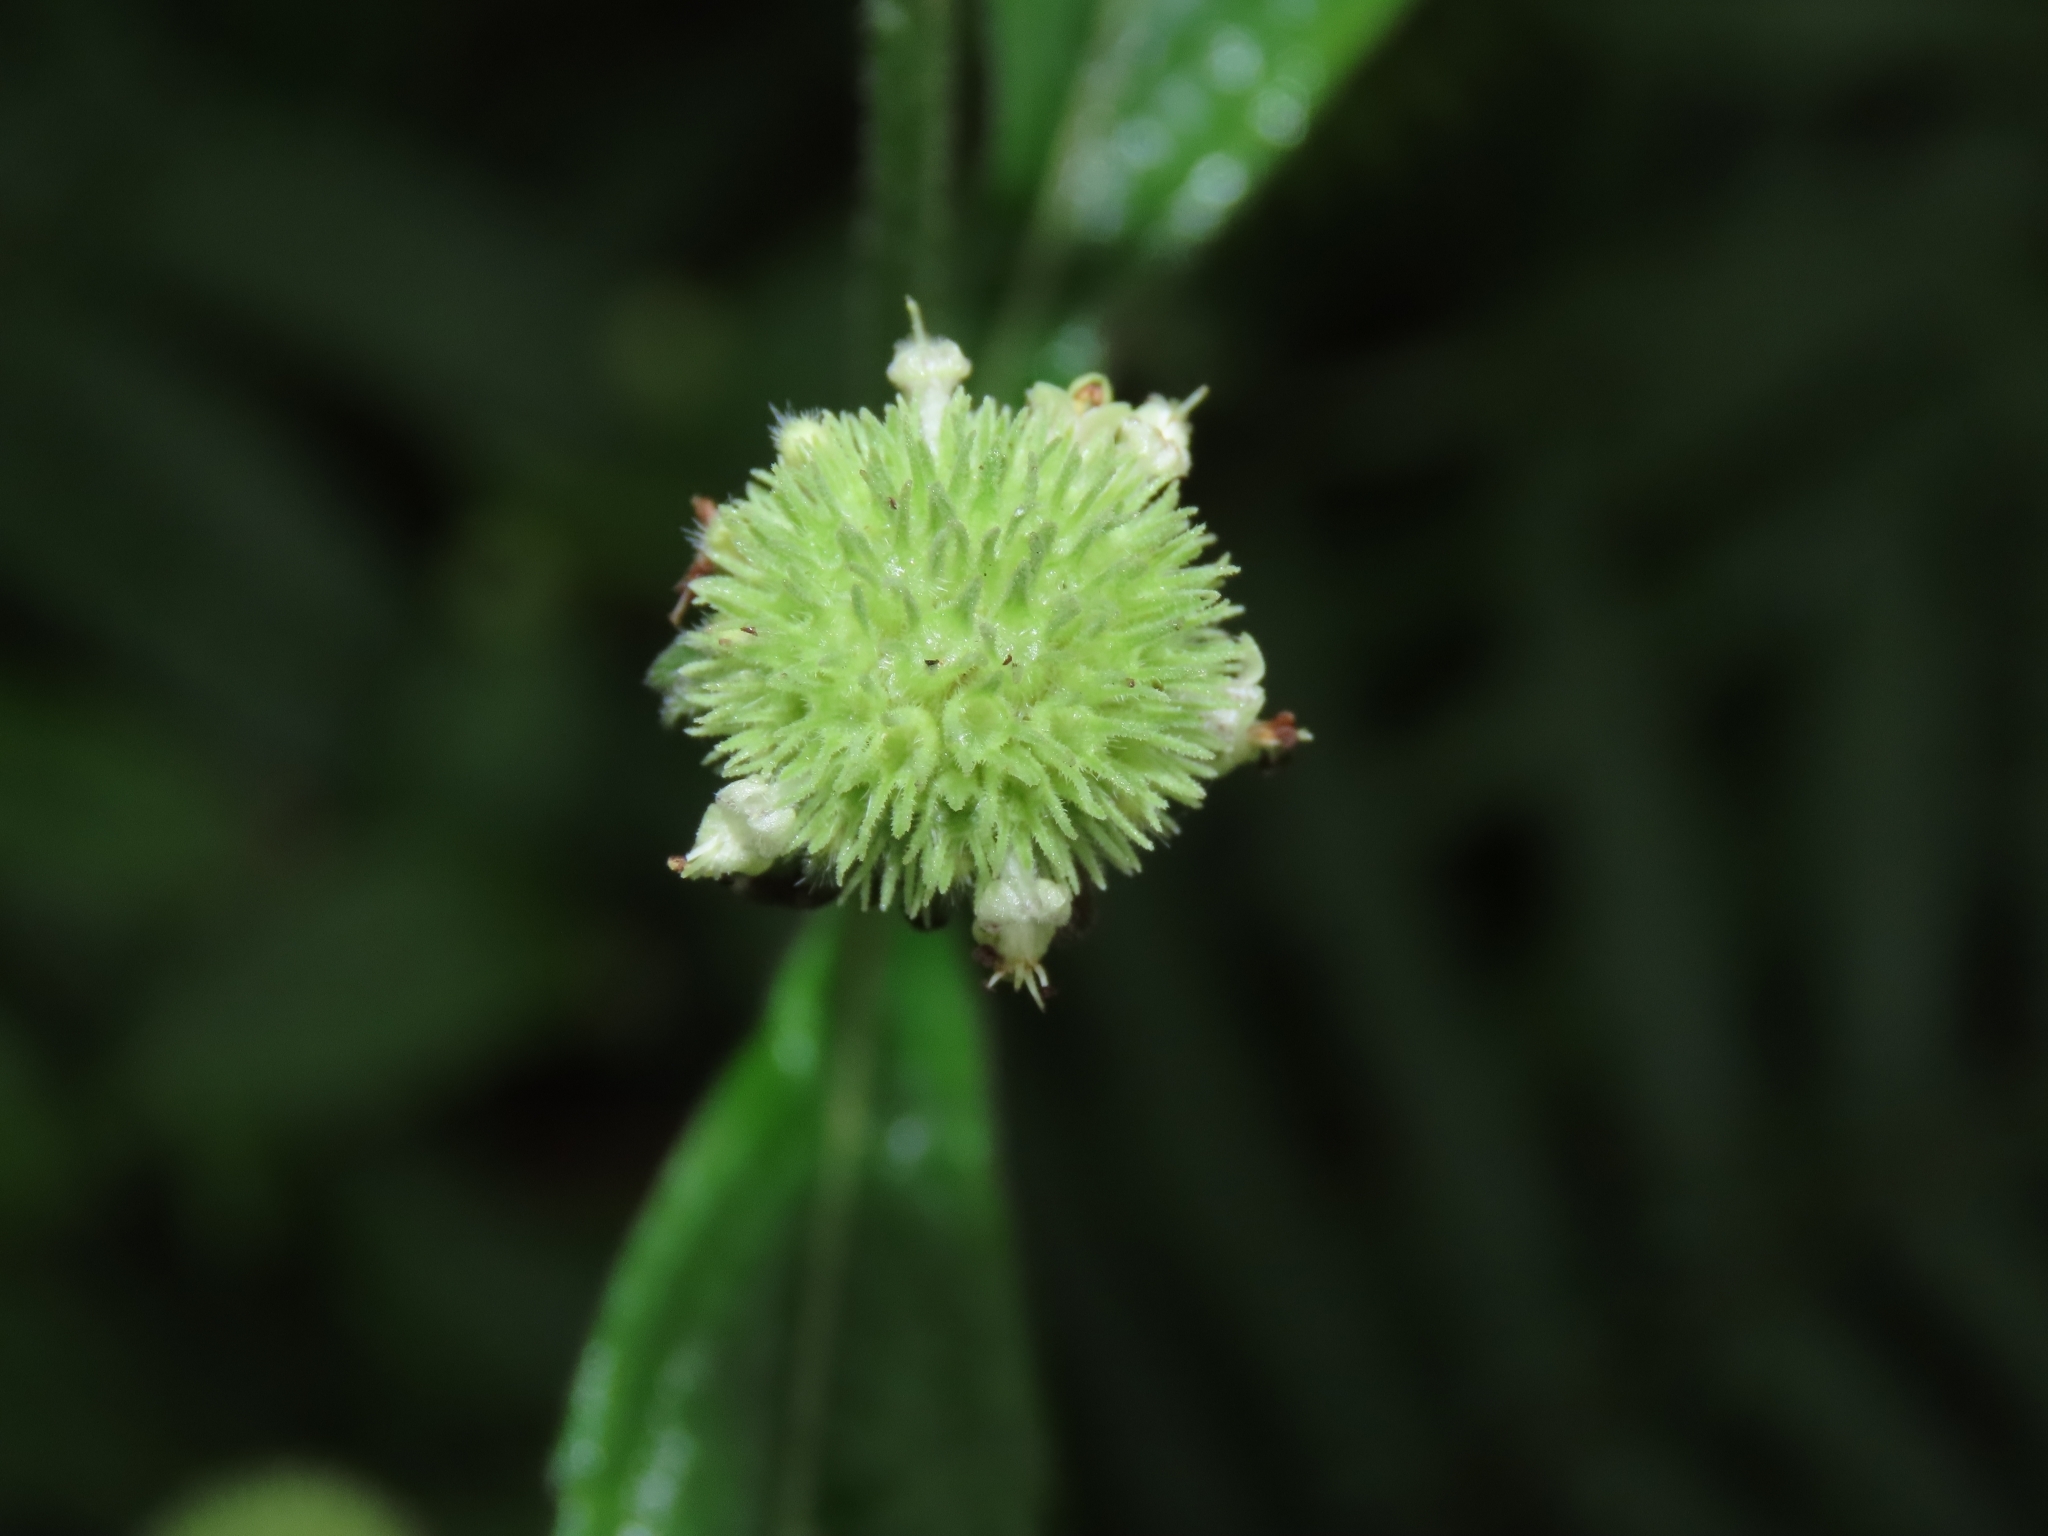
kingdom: Plantae
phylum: Tracheophyta
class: Magnoliopsida
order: Lamiales
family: Lamiaceae
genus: Hyptis
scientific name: Hyptis capitata
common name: False ironwort
